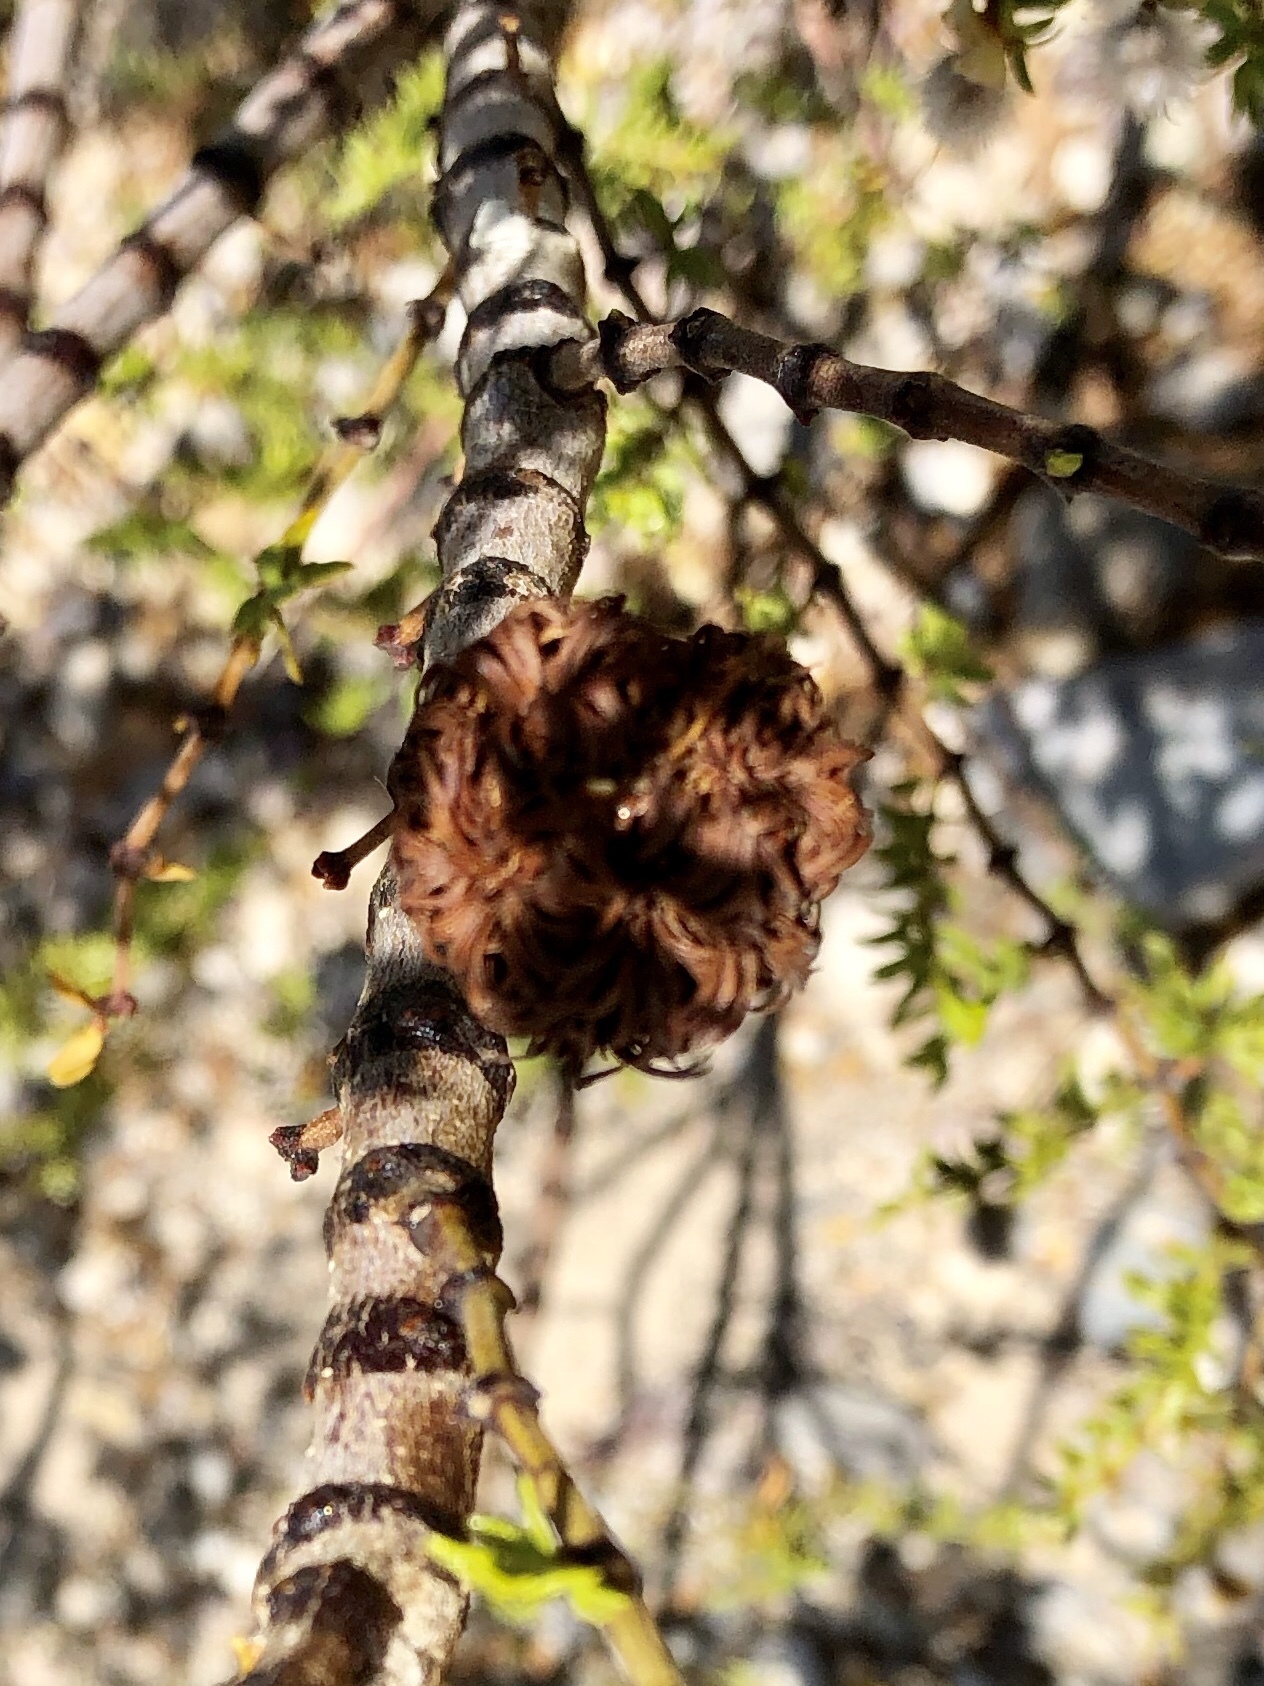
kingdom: Animalia
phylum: Arthropoda
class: Insecta
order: Diptera
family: Cecidomyiidae
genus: Asphondylia
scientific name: Asphondylia auripila
